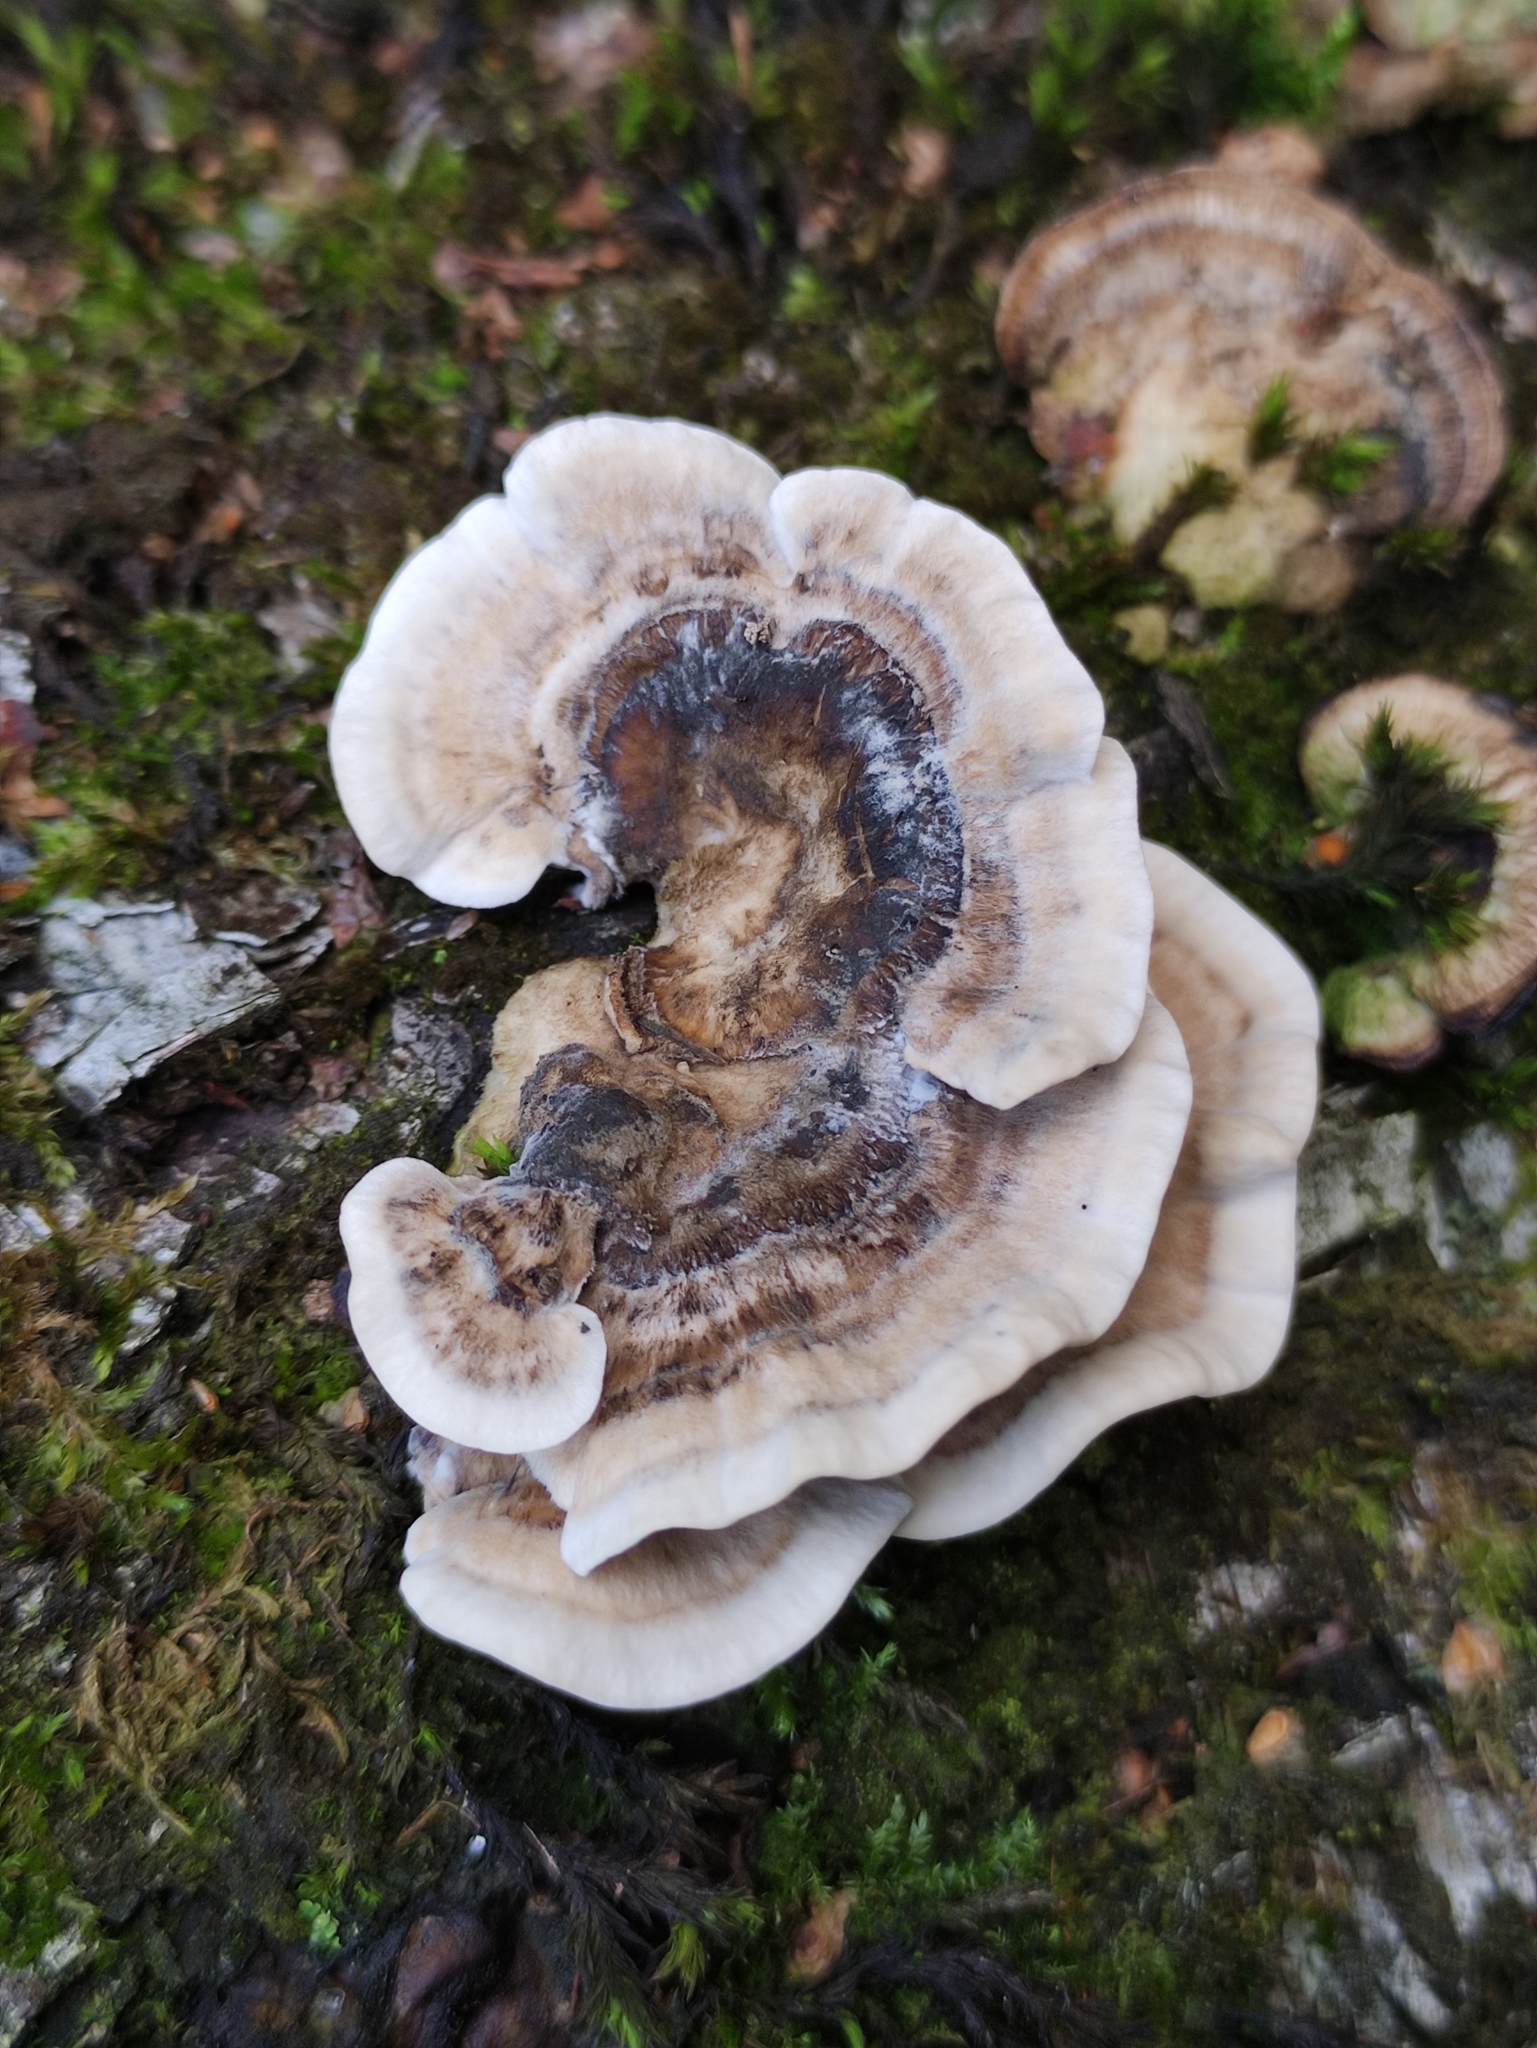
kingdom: Fungi
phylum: Basidiomycota
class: Agaricomycetes
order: Polyporales
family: Phanerochaetaceae
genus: Bjerkandera
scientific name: Bjerkandera adusta
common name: Smoky bracket
